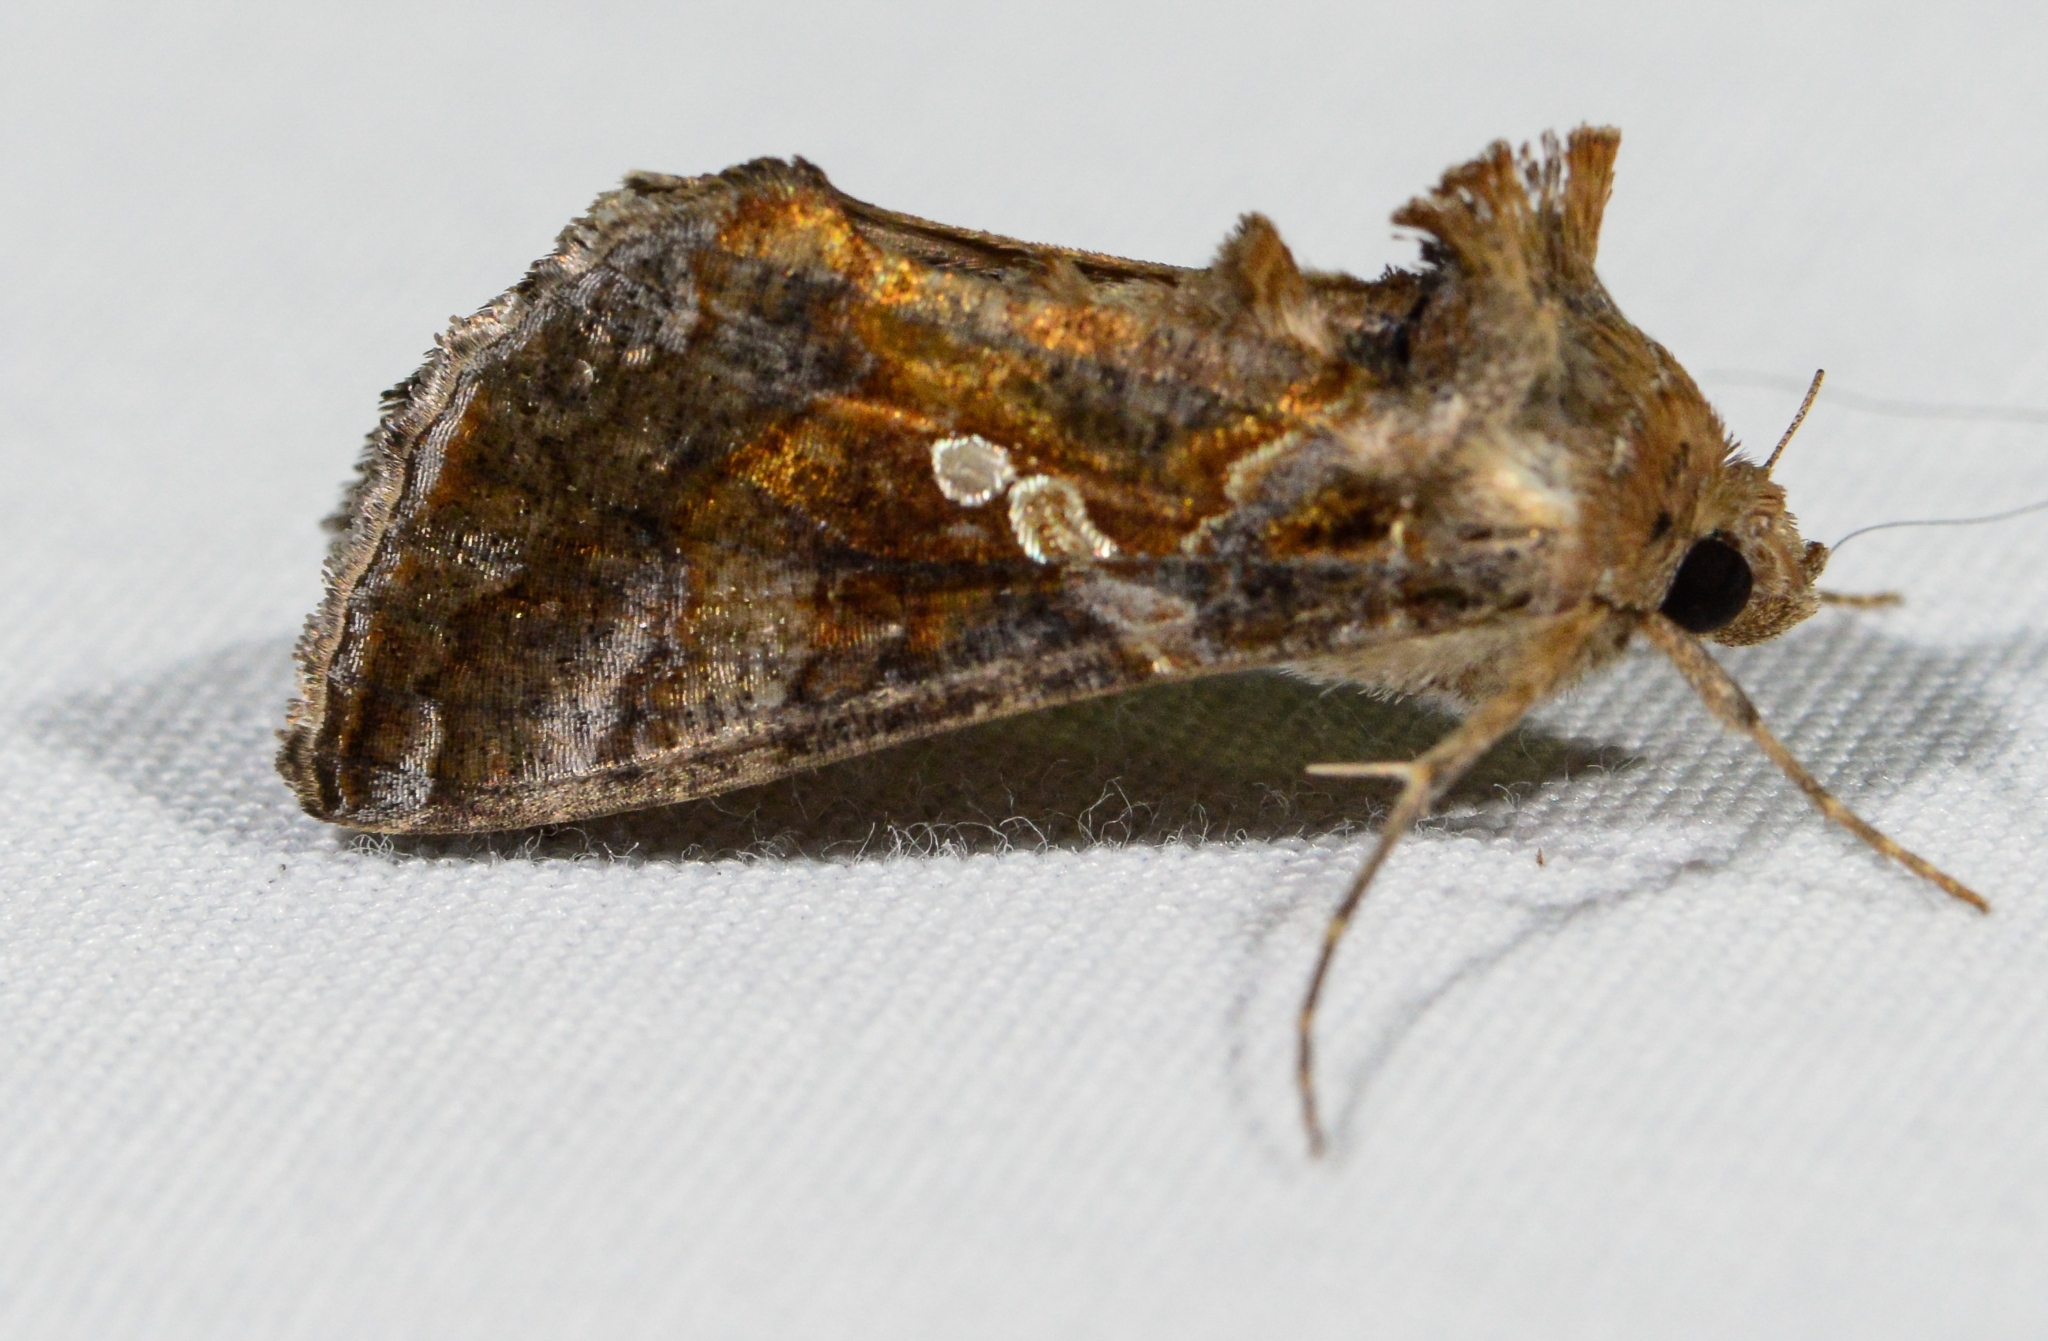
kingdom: Animalia
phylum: Arthropoda
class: Insecta
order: Lepidoptera
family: Noctuidae
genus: Chrysodeixis
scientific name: Chrysodeixis includens
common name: Cutworm moth
